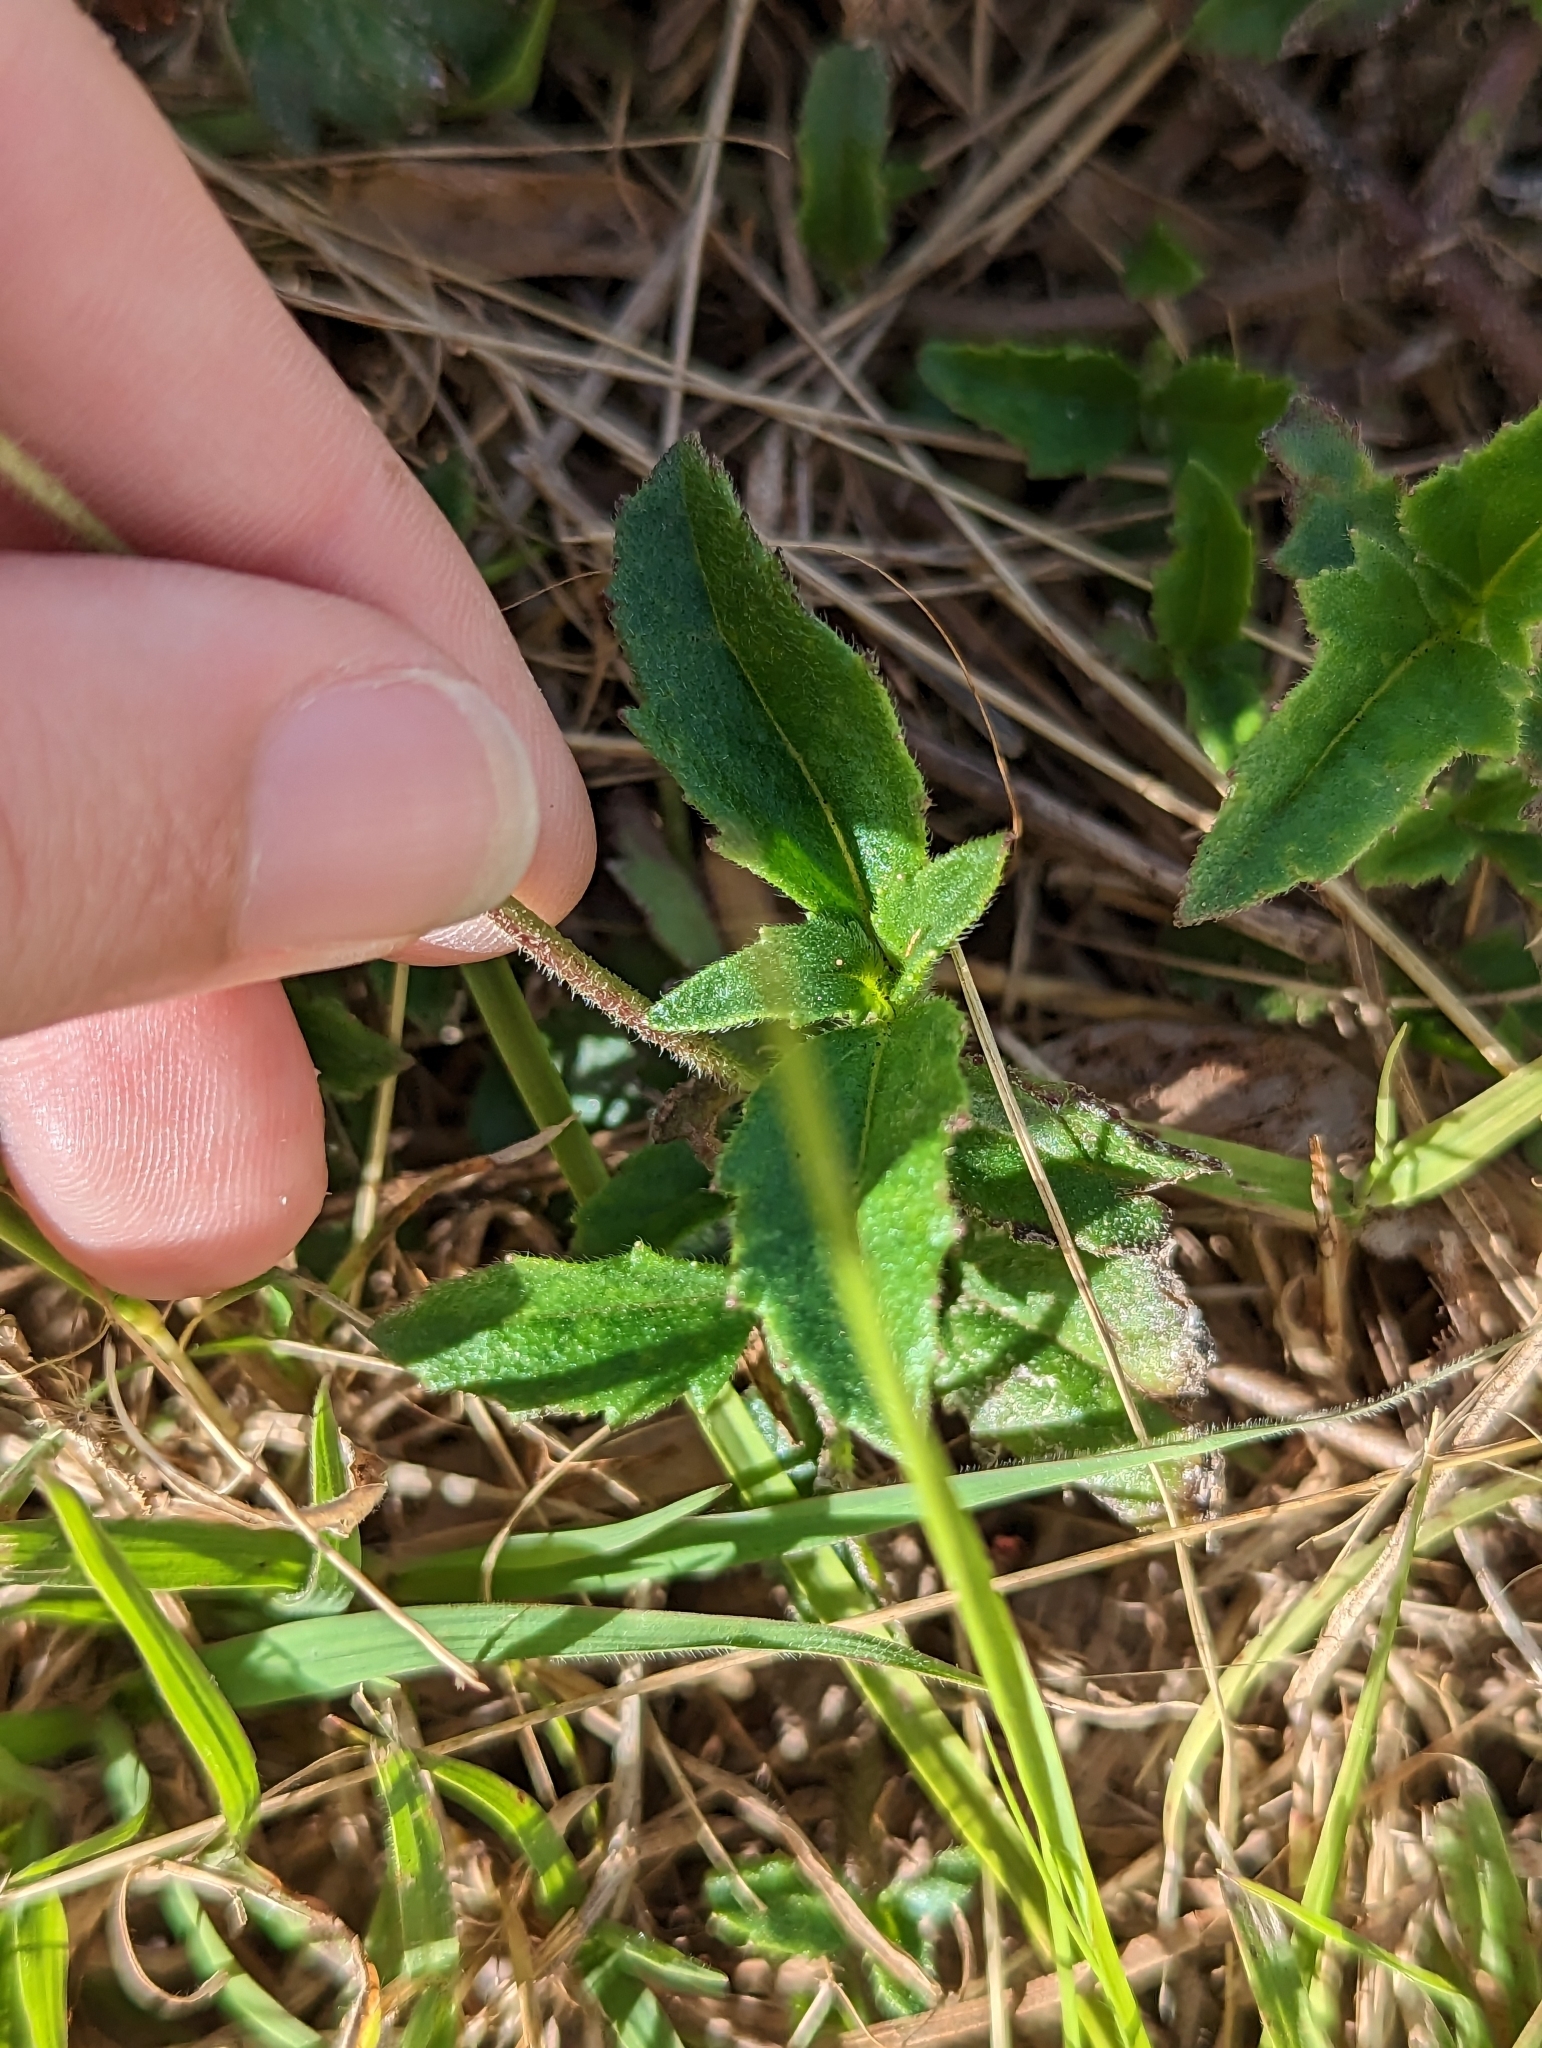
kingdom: Plantae
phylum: Tracheophyta
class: Magnoliopsida
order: Asterales
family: Asteraceae
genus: Tridax
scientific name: Tridax procumbens
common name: Coatbuttons
